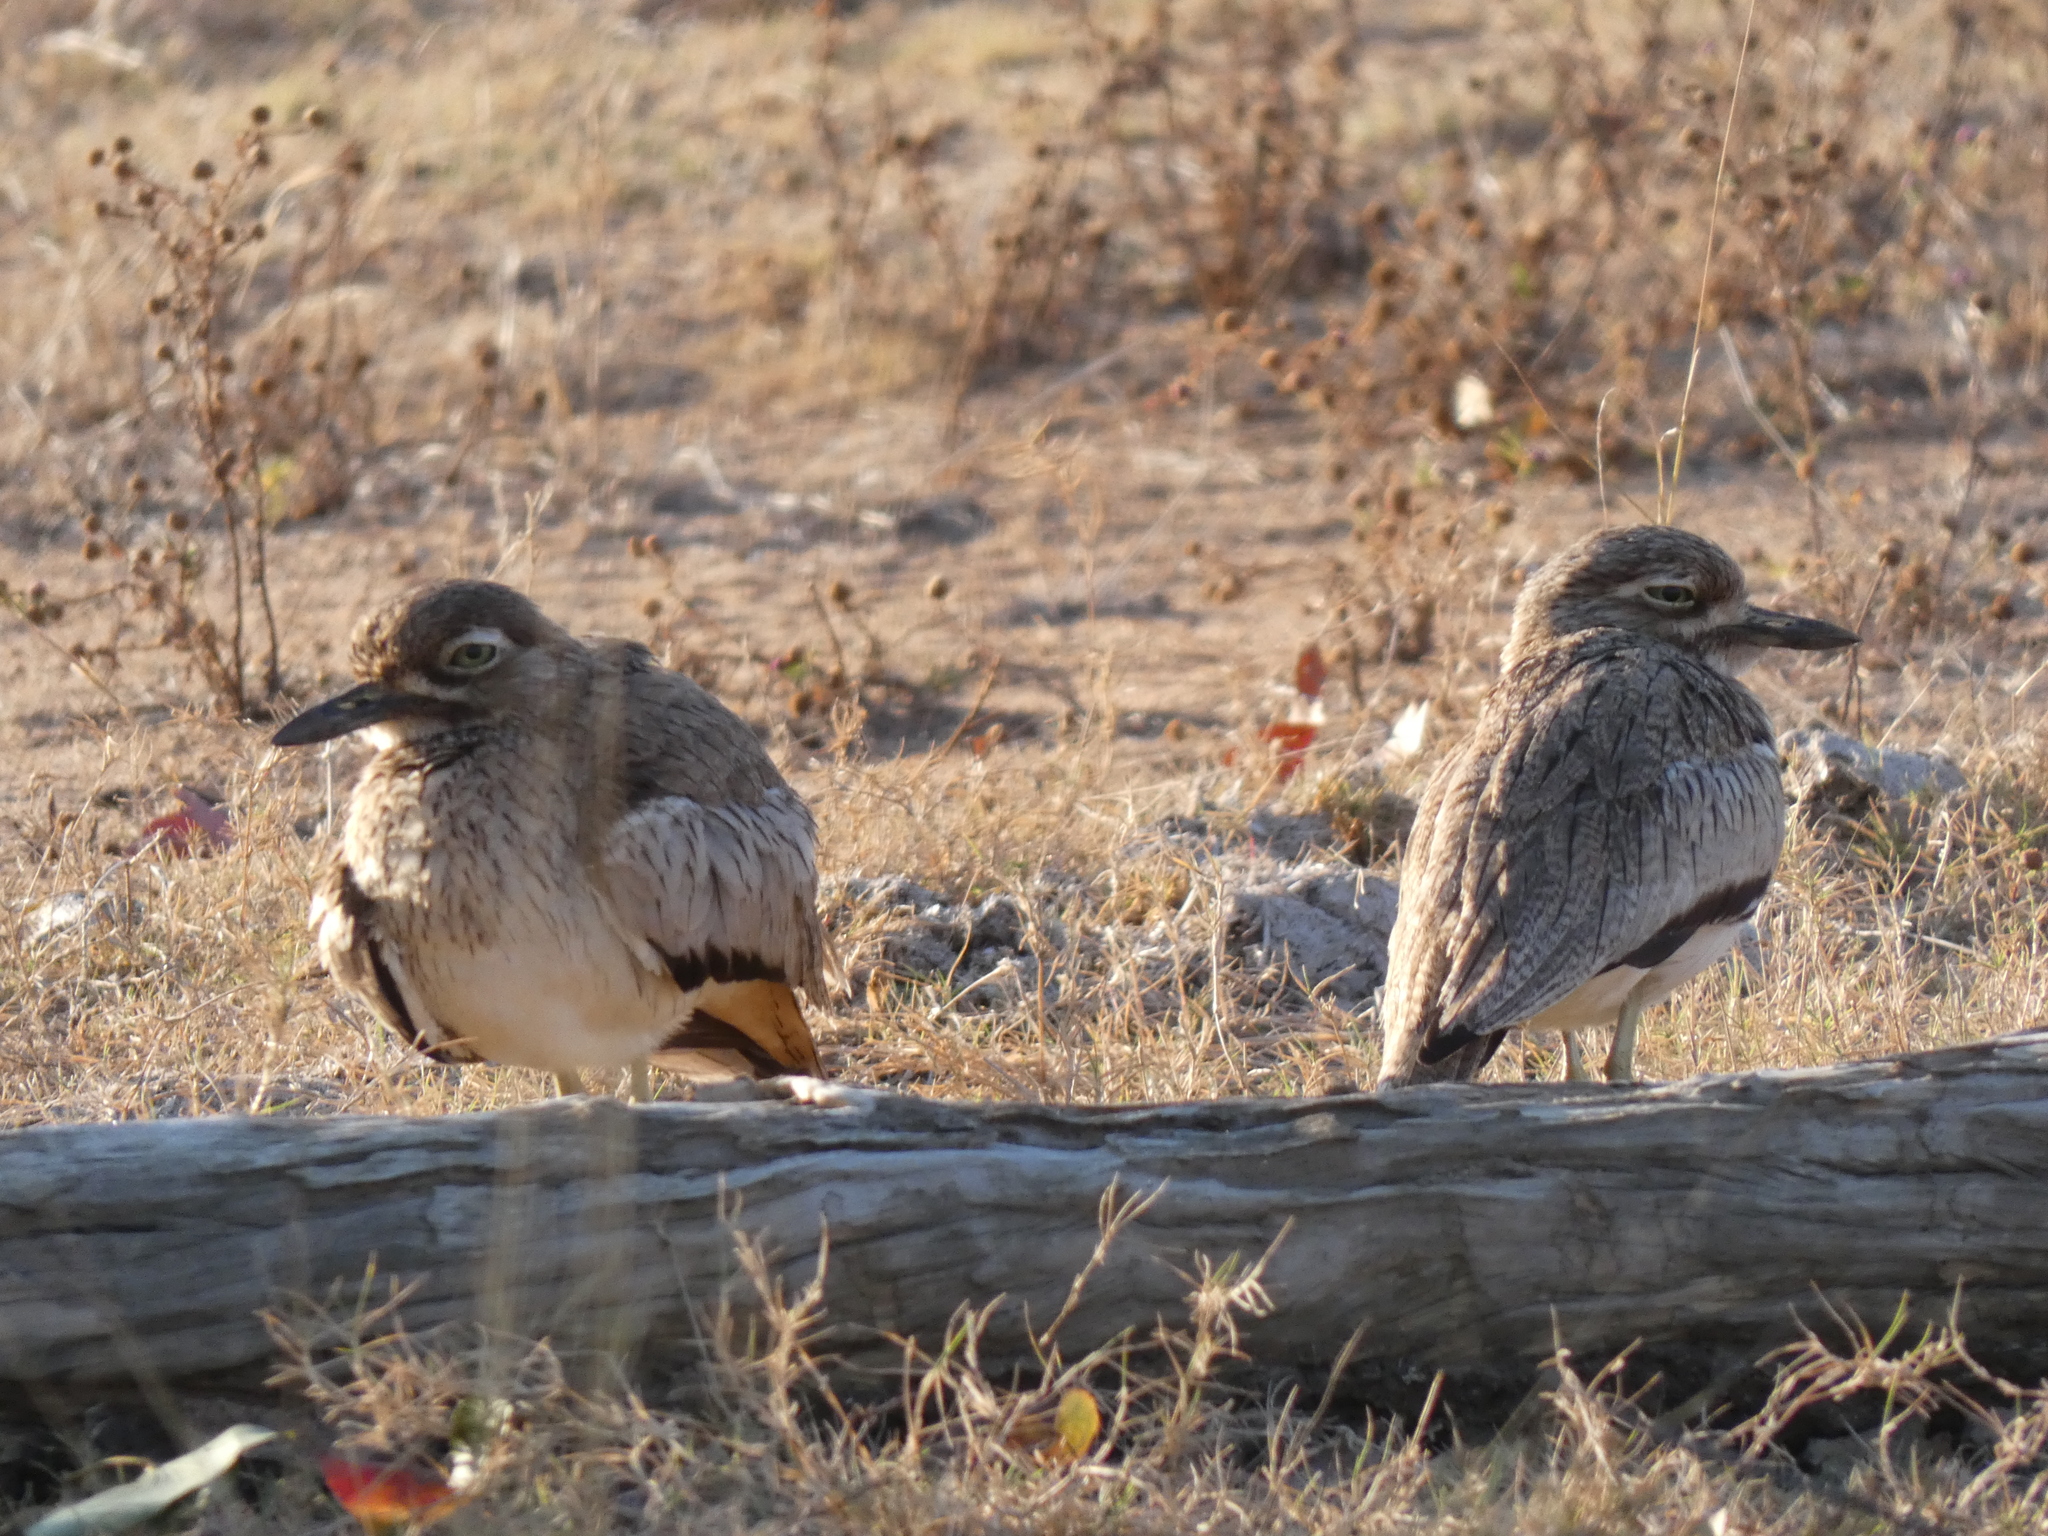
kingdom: Animalia
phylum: Chordata
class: Aves
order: Charadriiformes
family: Burhinidae
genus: Burhinus
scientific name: Burhinus vermiculatus
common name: Water thick-knee
